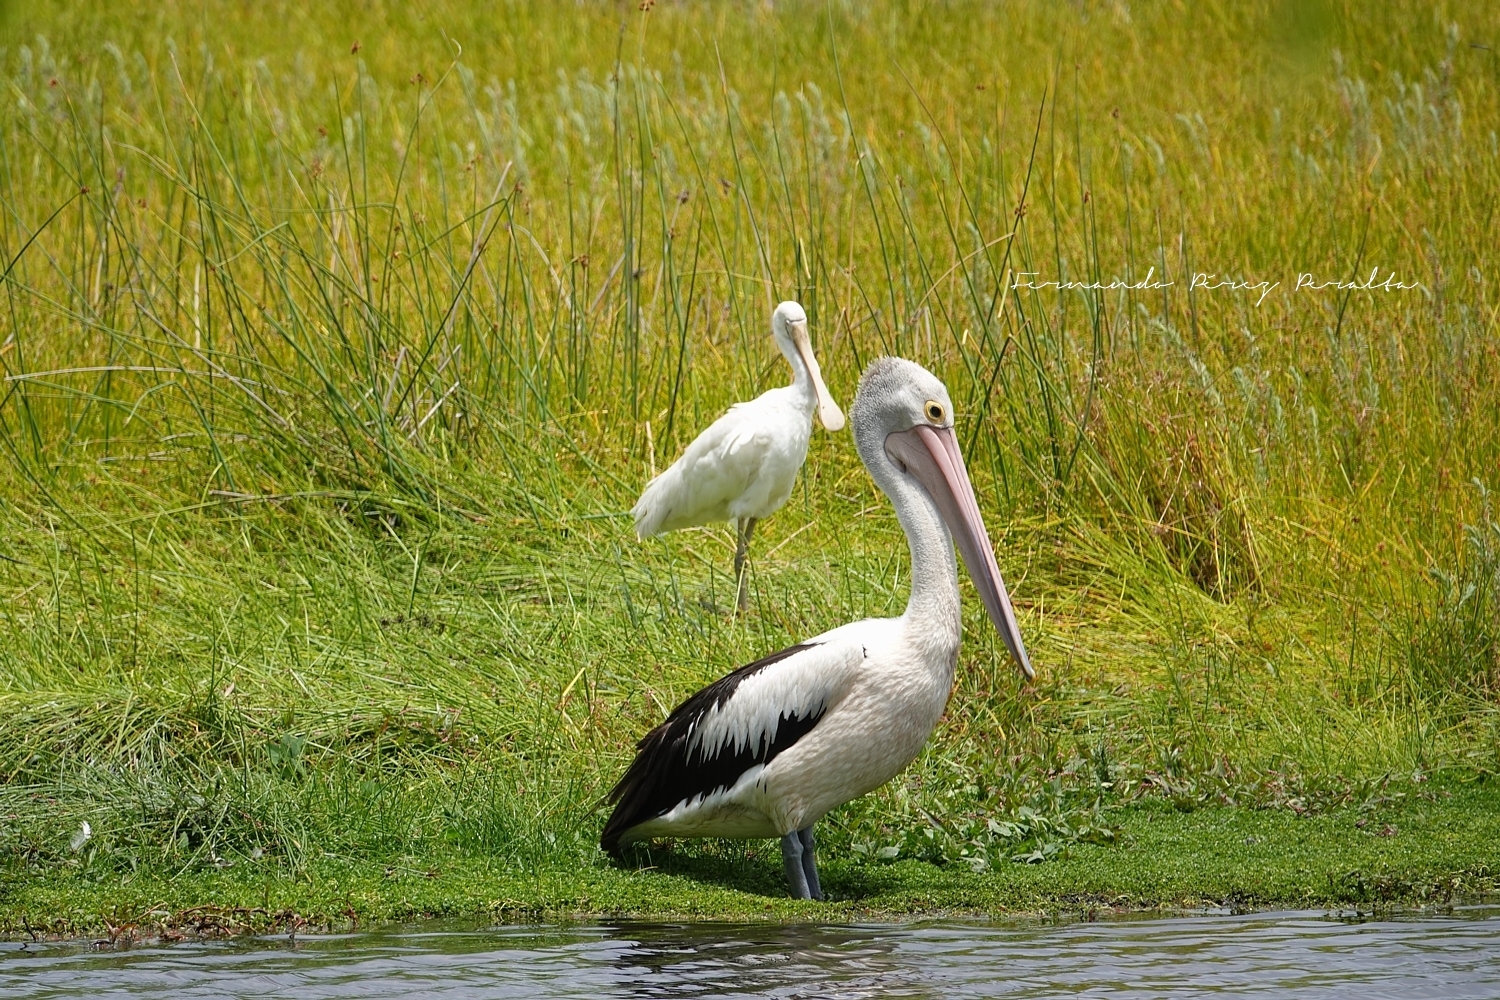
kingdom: Animalia
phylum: Chordata
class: Aves
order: Pelecaniformes
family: Pelecanidae
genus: Pelecanus
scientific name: Pelecanus conspicillatus
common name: Australian pelican
